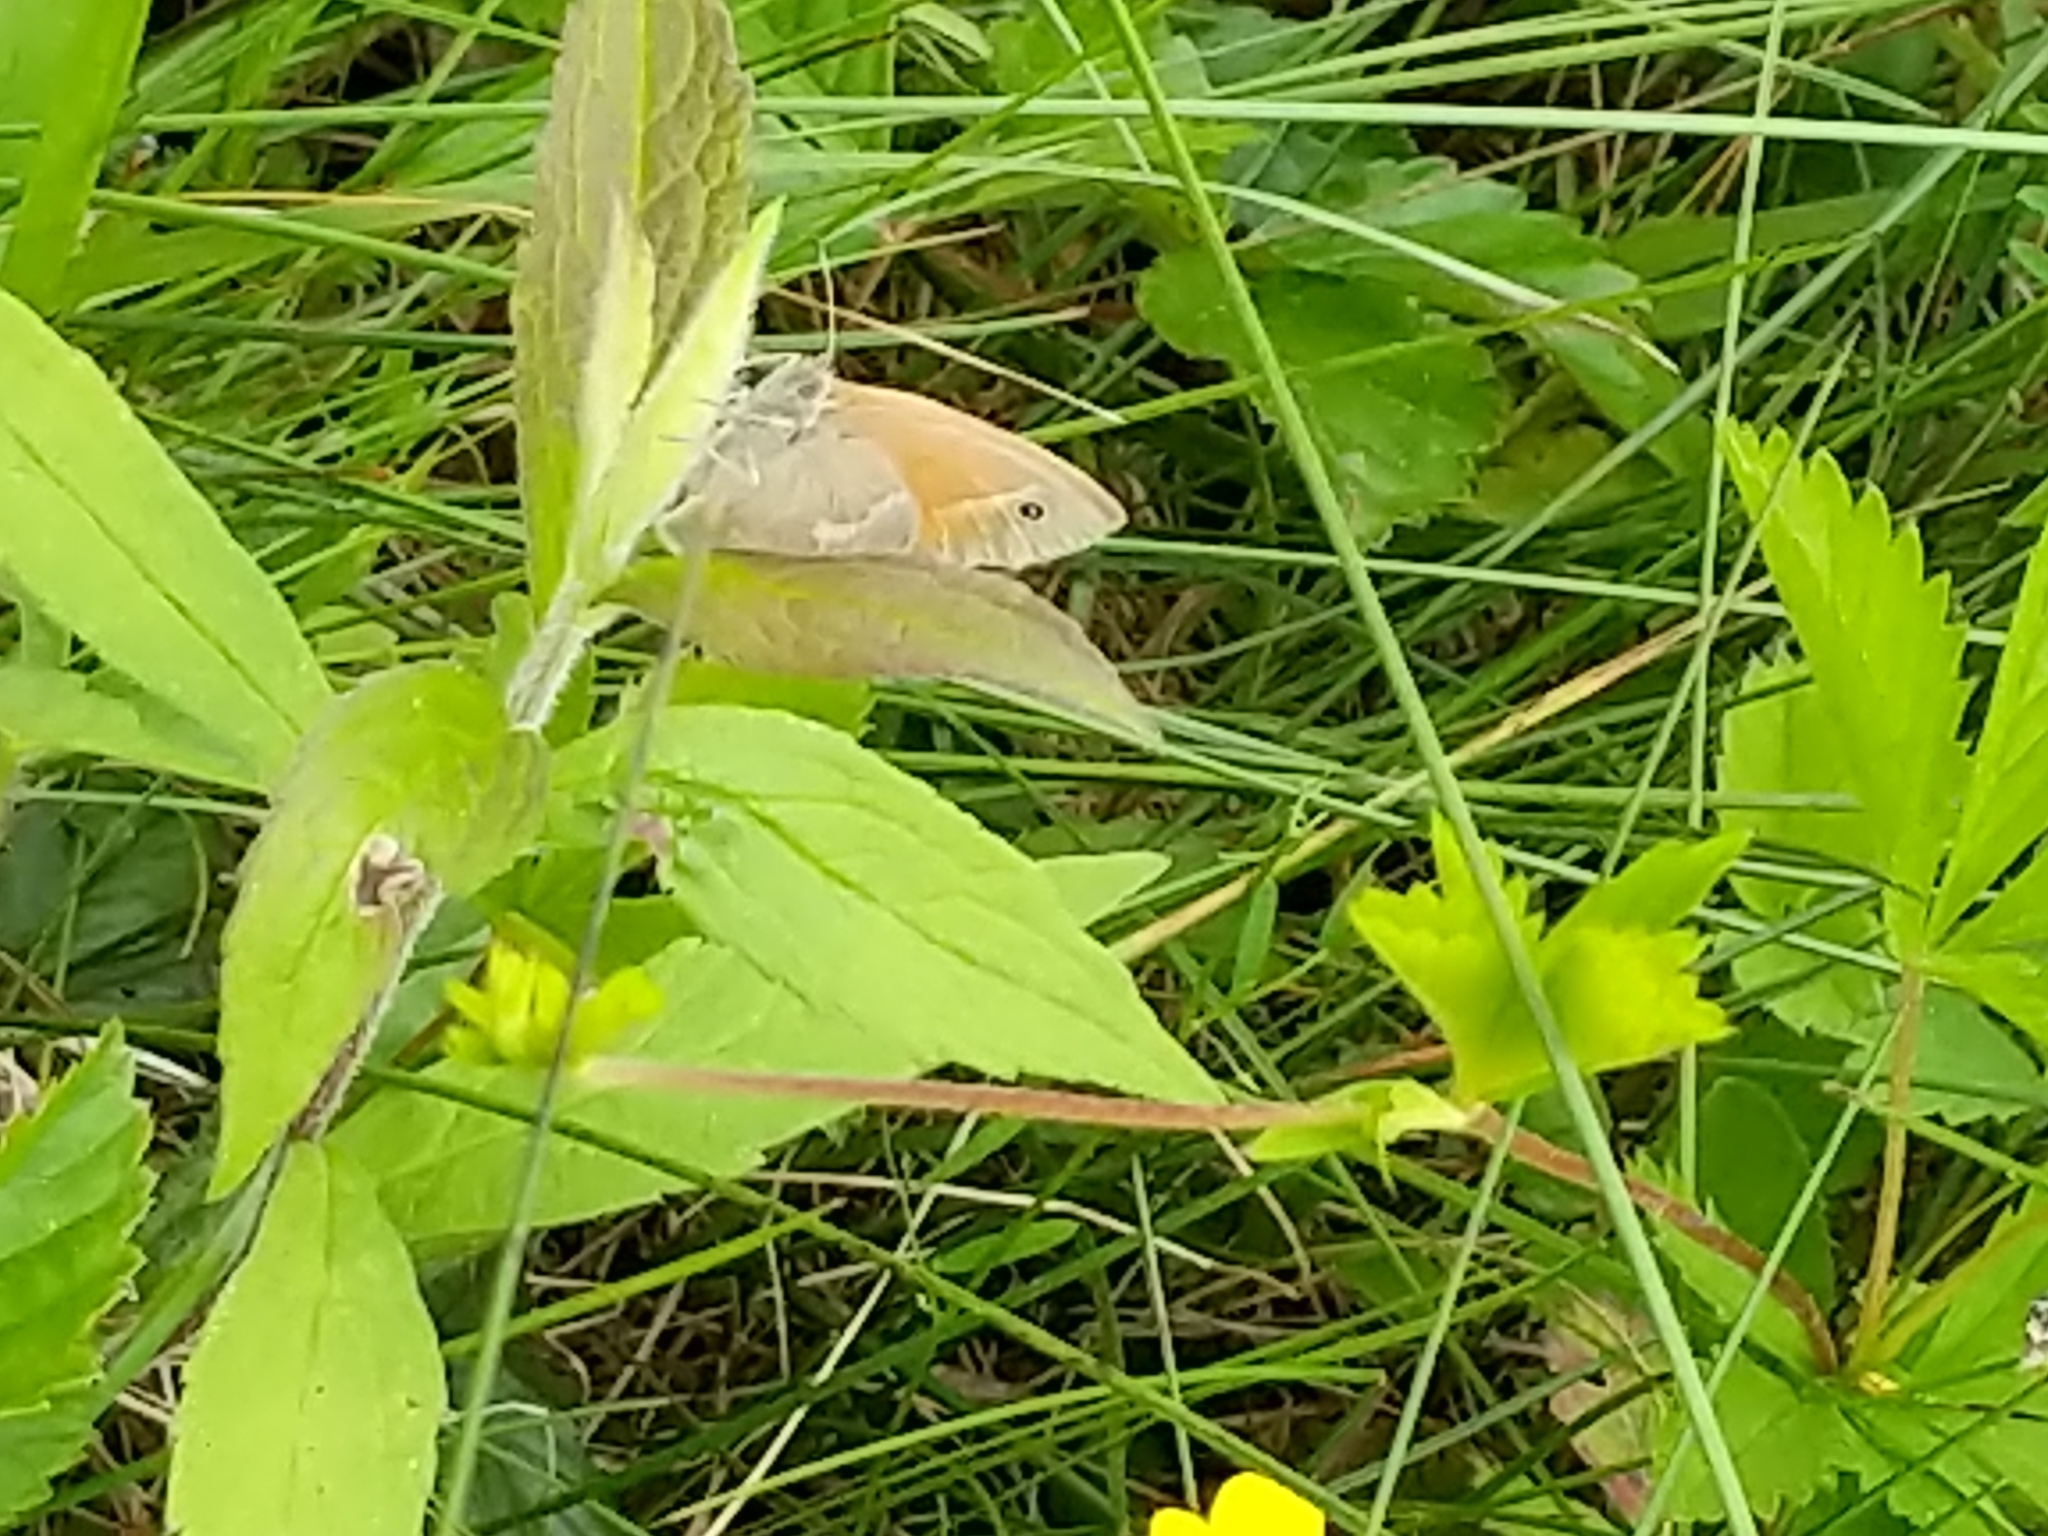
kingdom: Animalia
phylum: Arthropoda
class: Insecta
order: Lepidoptera
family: Nymphalidae
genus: Coenonympha
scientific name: Coenonympha california
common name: Common ringlet
